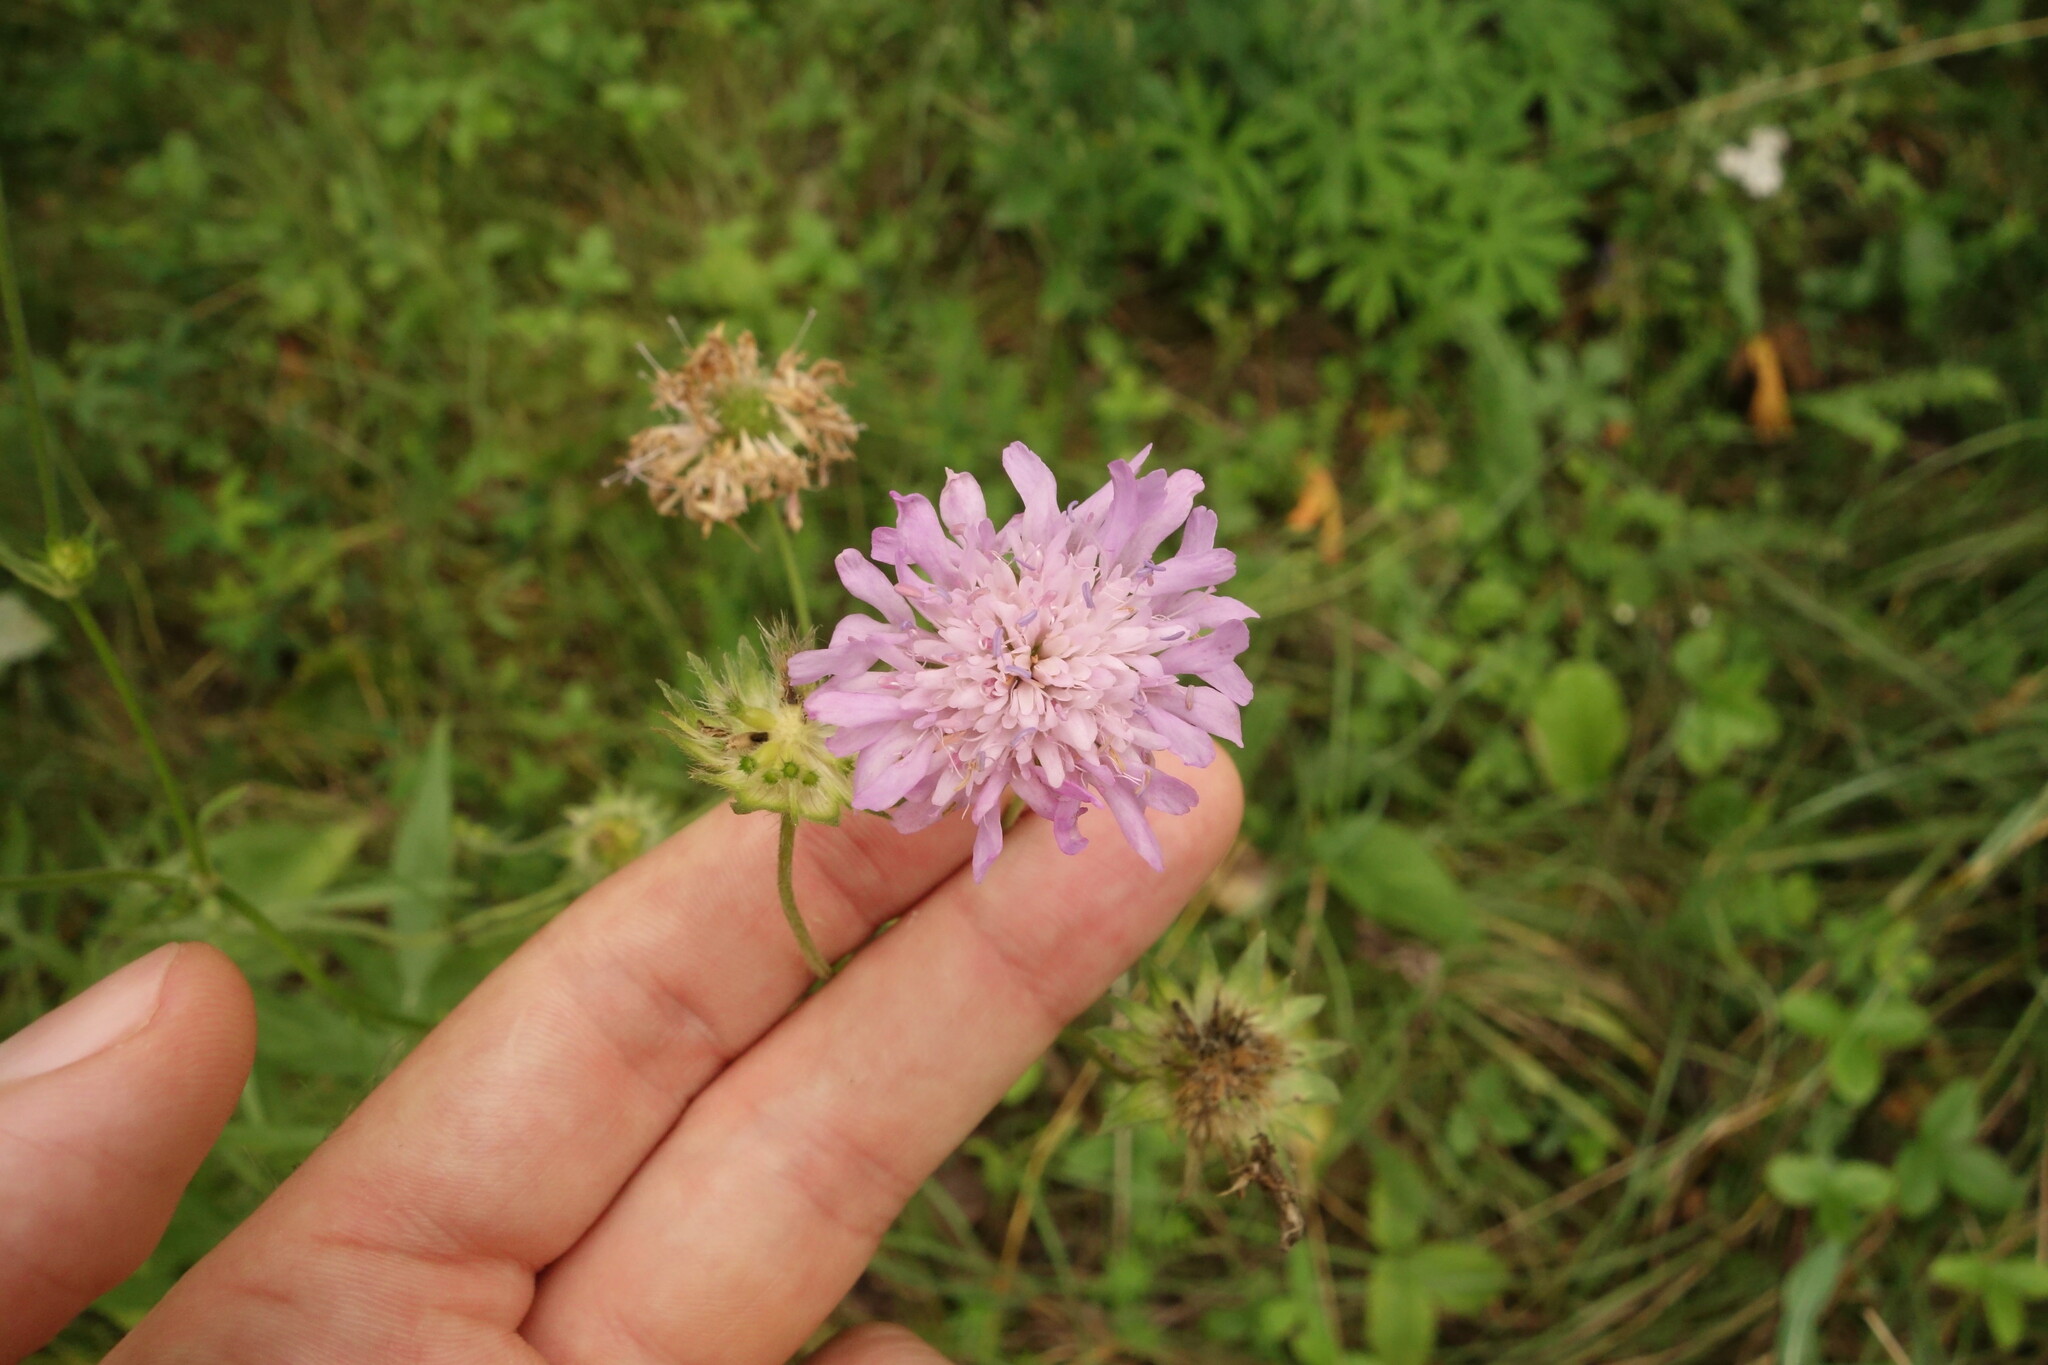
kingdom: Plantae
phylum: Tracheophyta
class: Magnoliopsida
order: Dipsacales
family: Caprifoliaceae
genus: Knautia
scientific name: Knautia arvensis
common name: Field scabiosa
